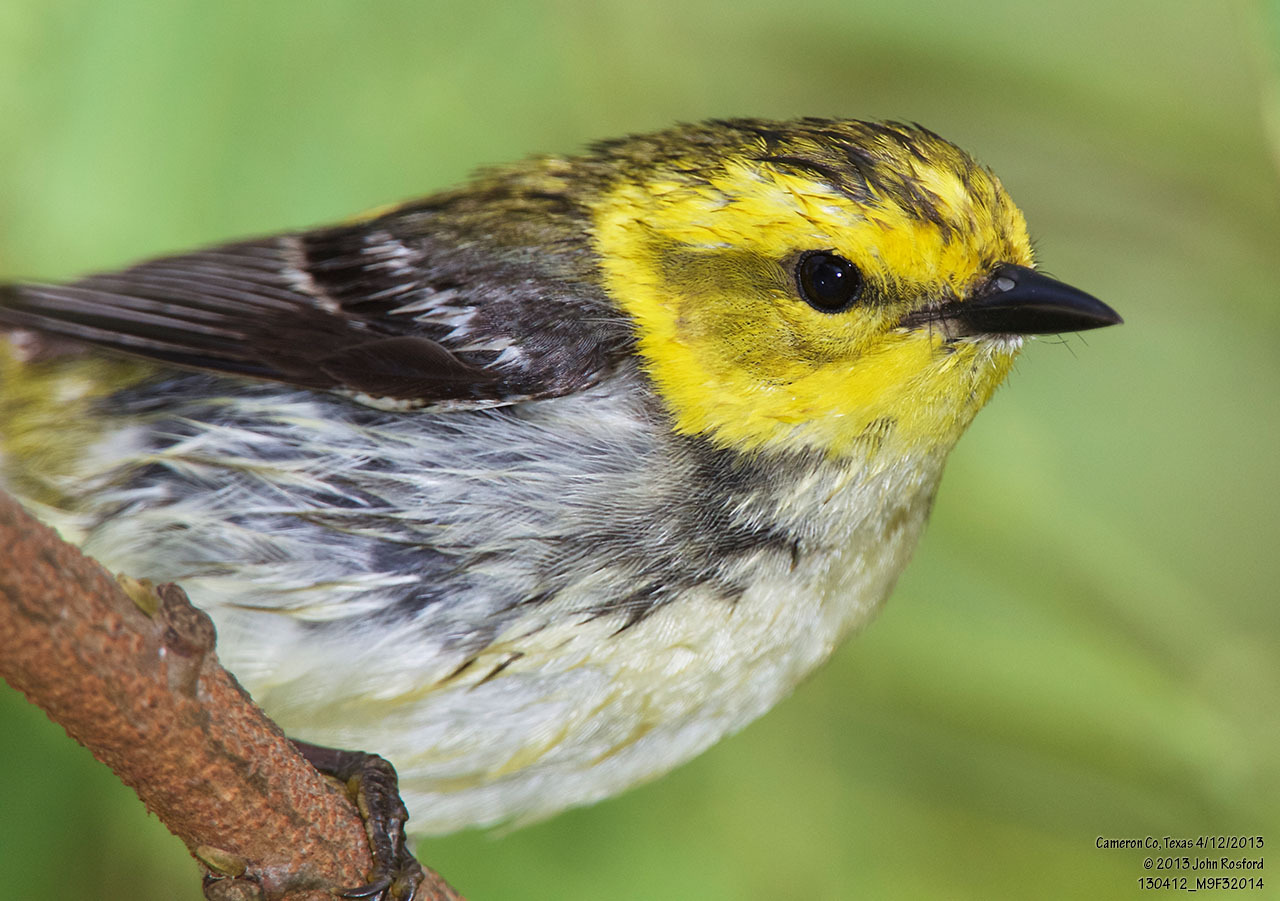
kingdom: Animalia
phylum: Chordata
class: Aves
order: Passeriformes
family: Parulidae
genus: Setophaga
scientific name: Setophaga virens
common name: Black-throated green warbler
